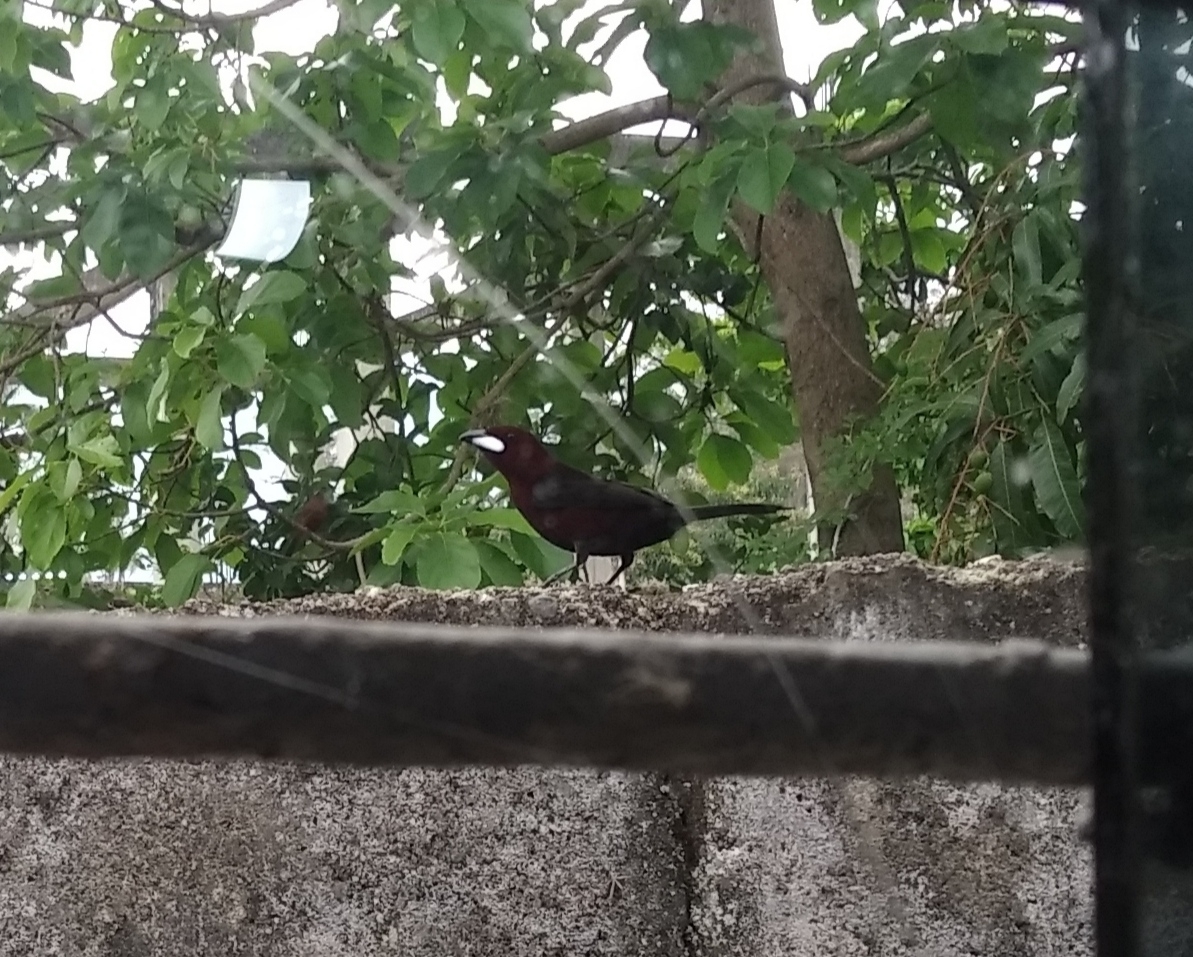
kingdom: Animalia
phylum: Chordata
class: Aves
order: Passeriformes
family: Thraupidae
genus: Ramphocelus
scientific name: Ramphocelus carbo
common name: Silver-beaked tanager
